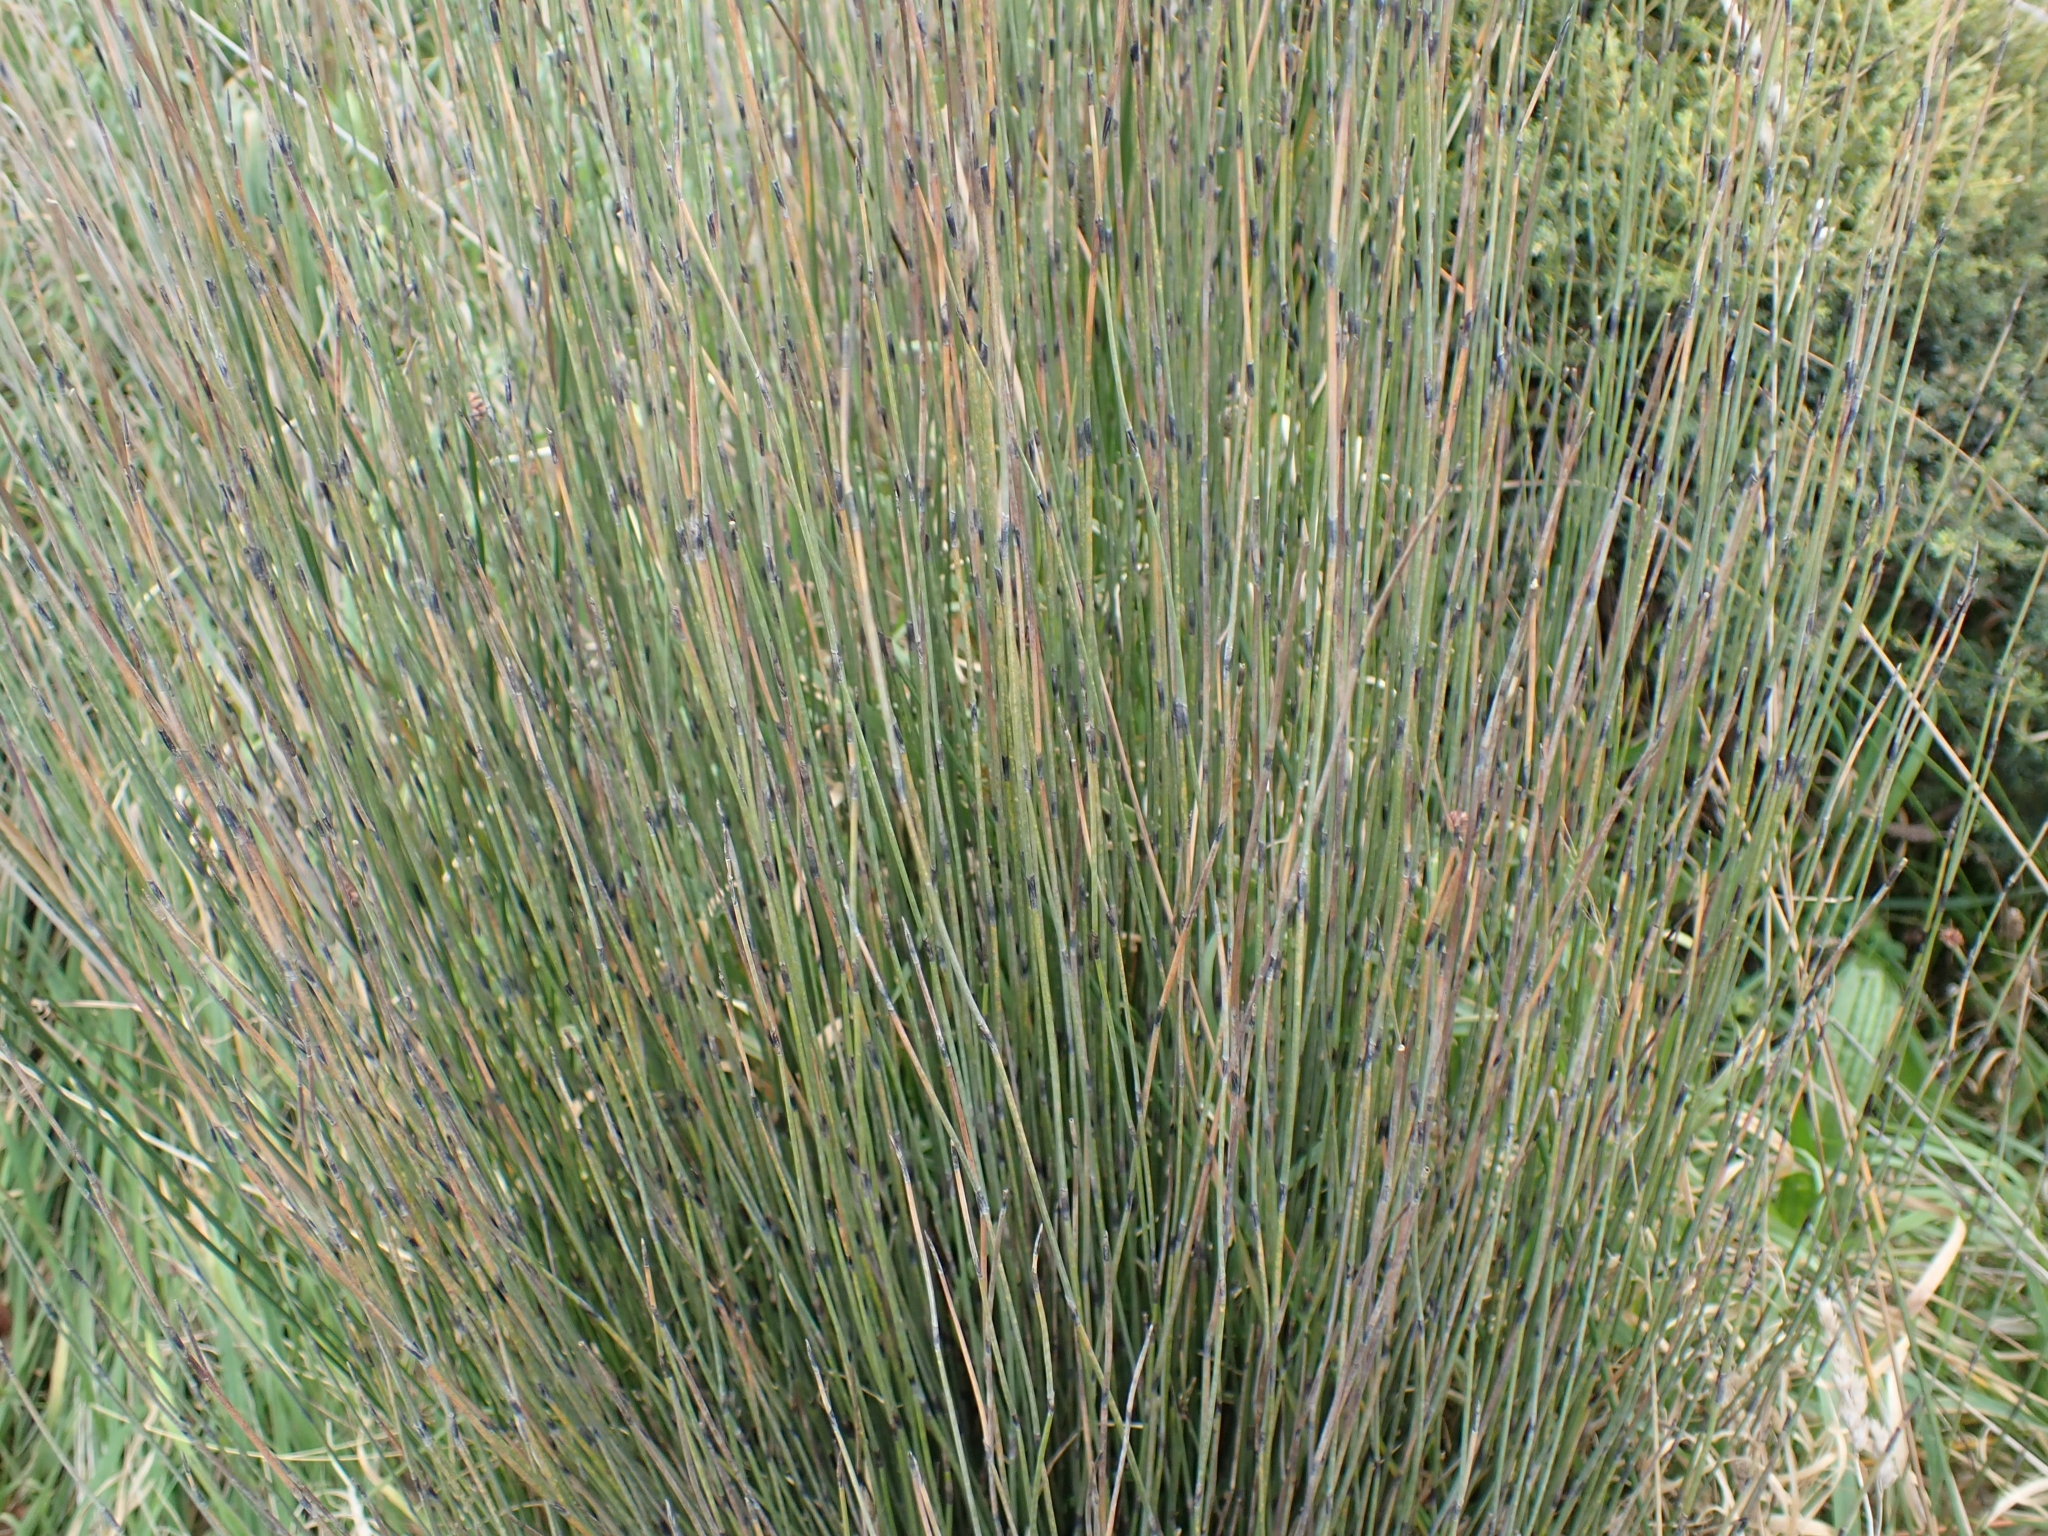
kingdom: Plantae
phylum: Tracheophyta
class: Liliopsida
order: Poales
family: Restionaceae
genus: Apodasmia
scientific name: Apodasmia similis
